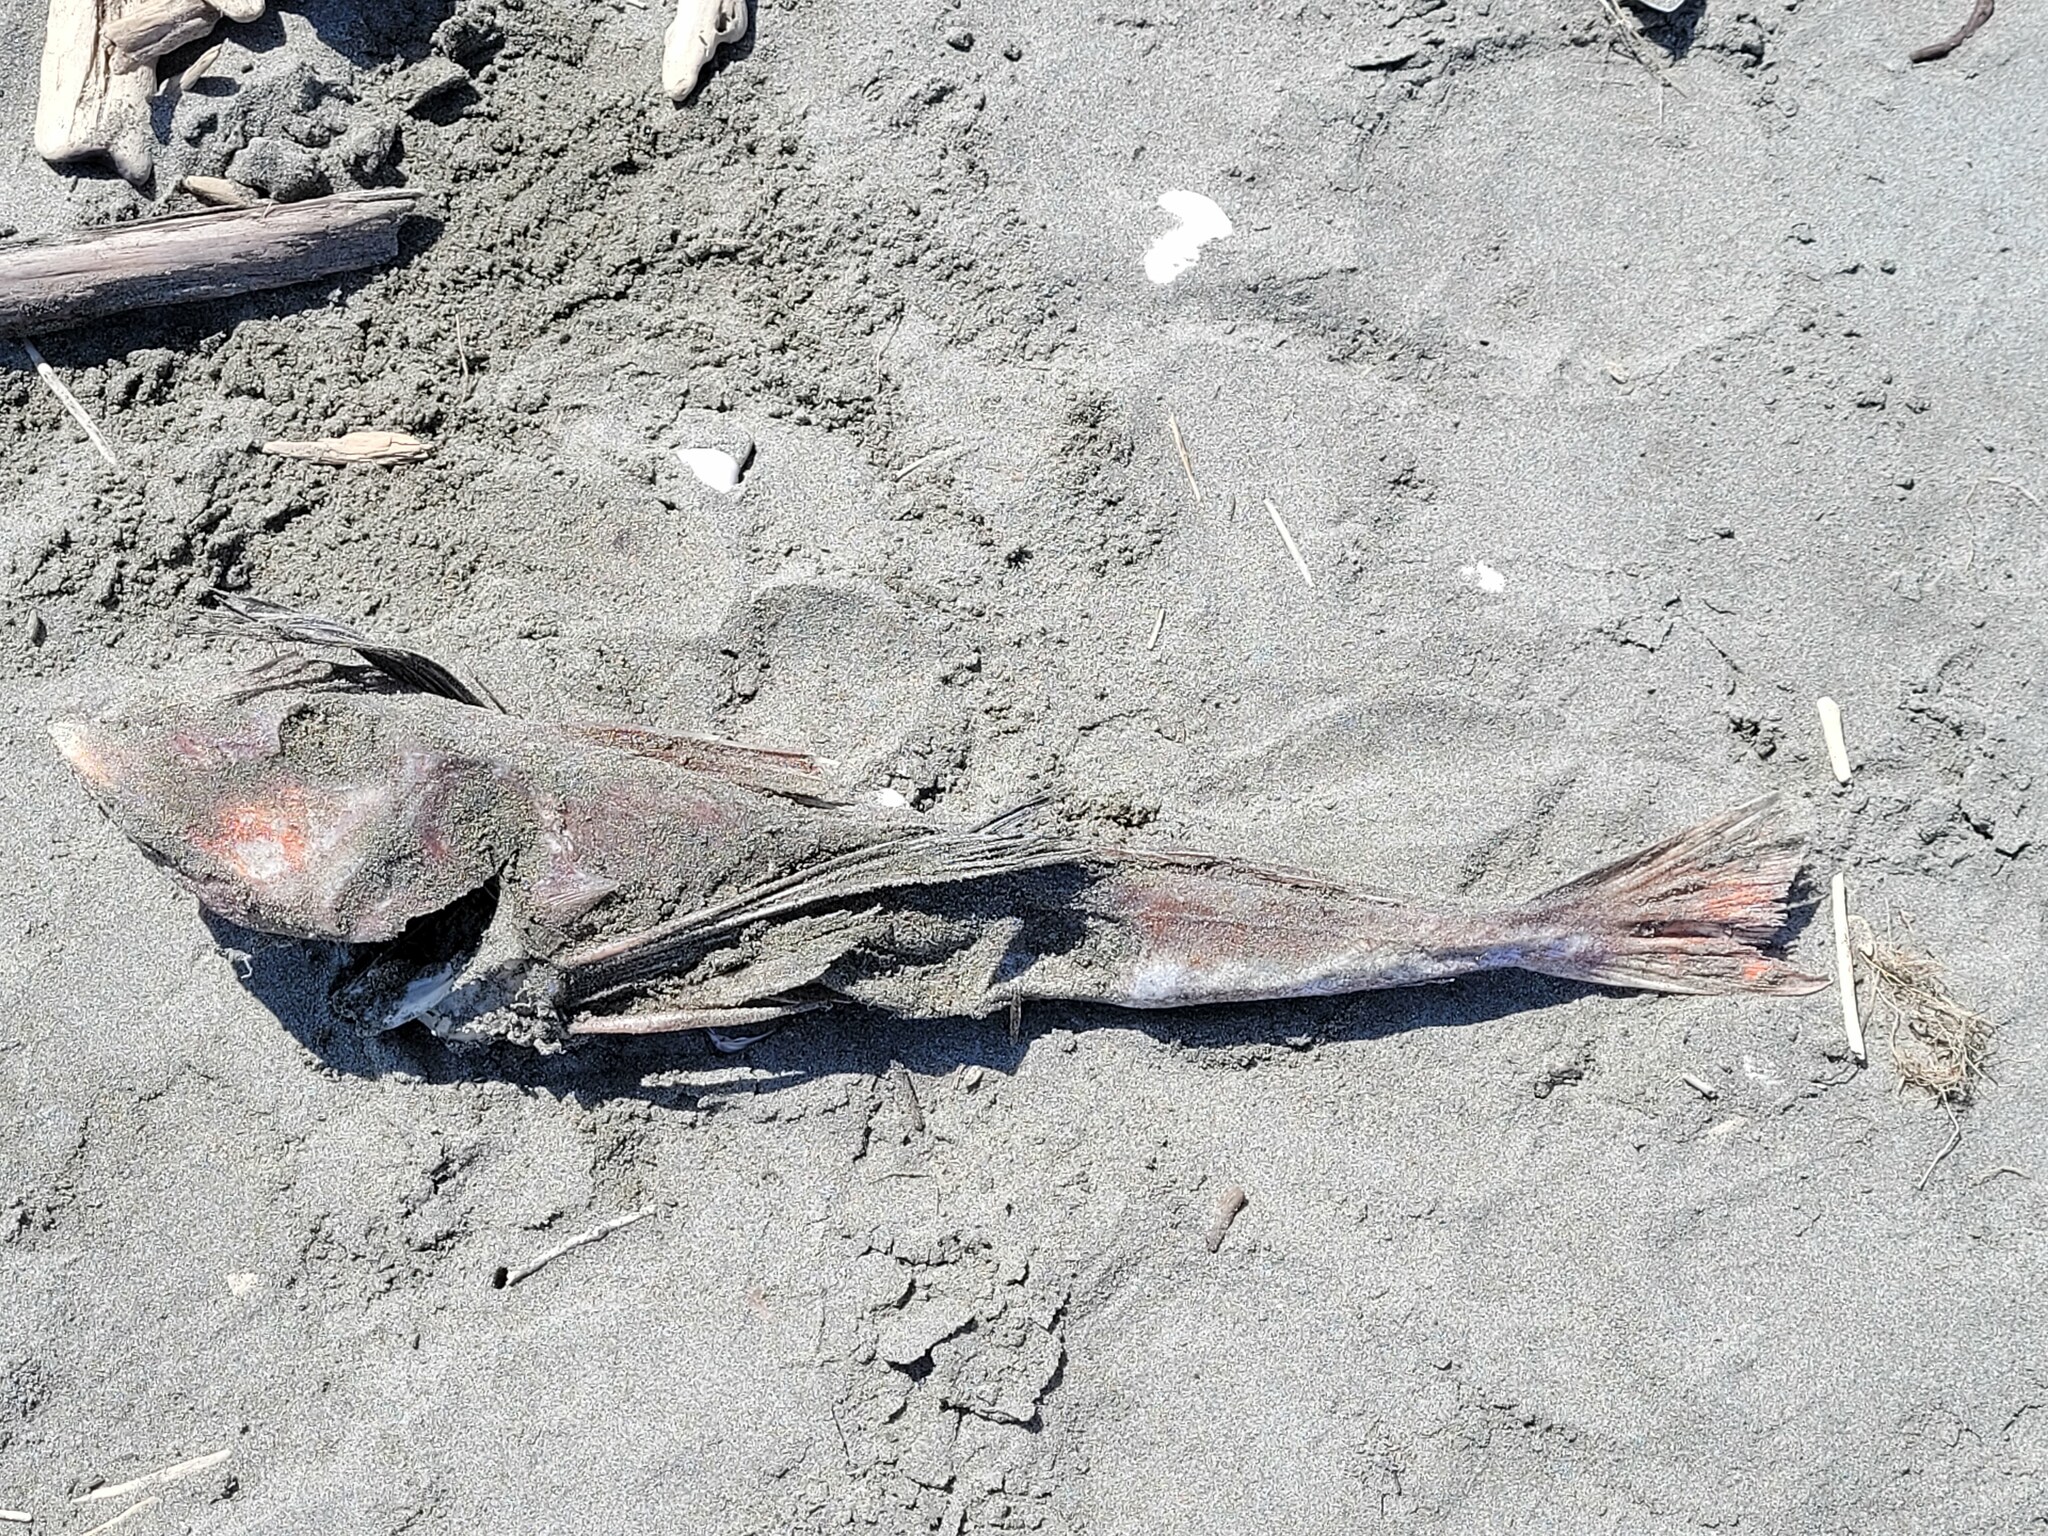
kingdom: Animalia
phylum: Chordata
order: Scorpaeniformes
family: Triglidae
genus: Chelidonichthys
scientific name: Chelidonichthys kumu
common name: Bluefin gurnard
